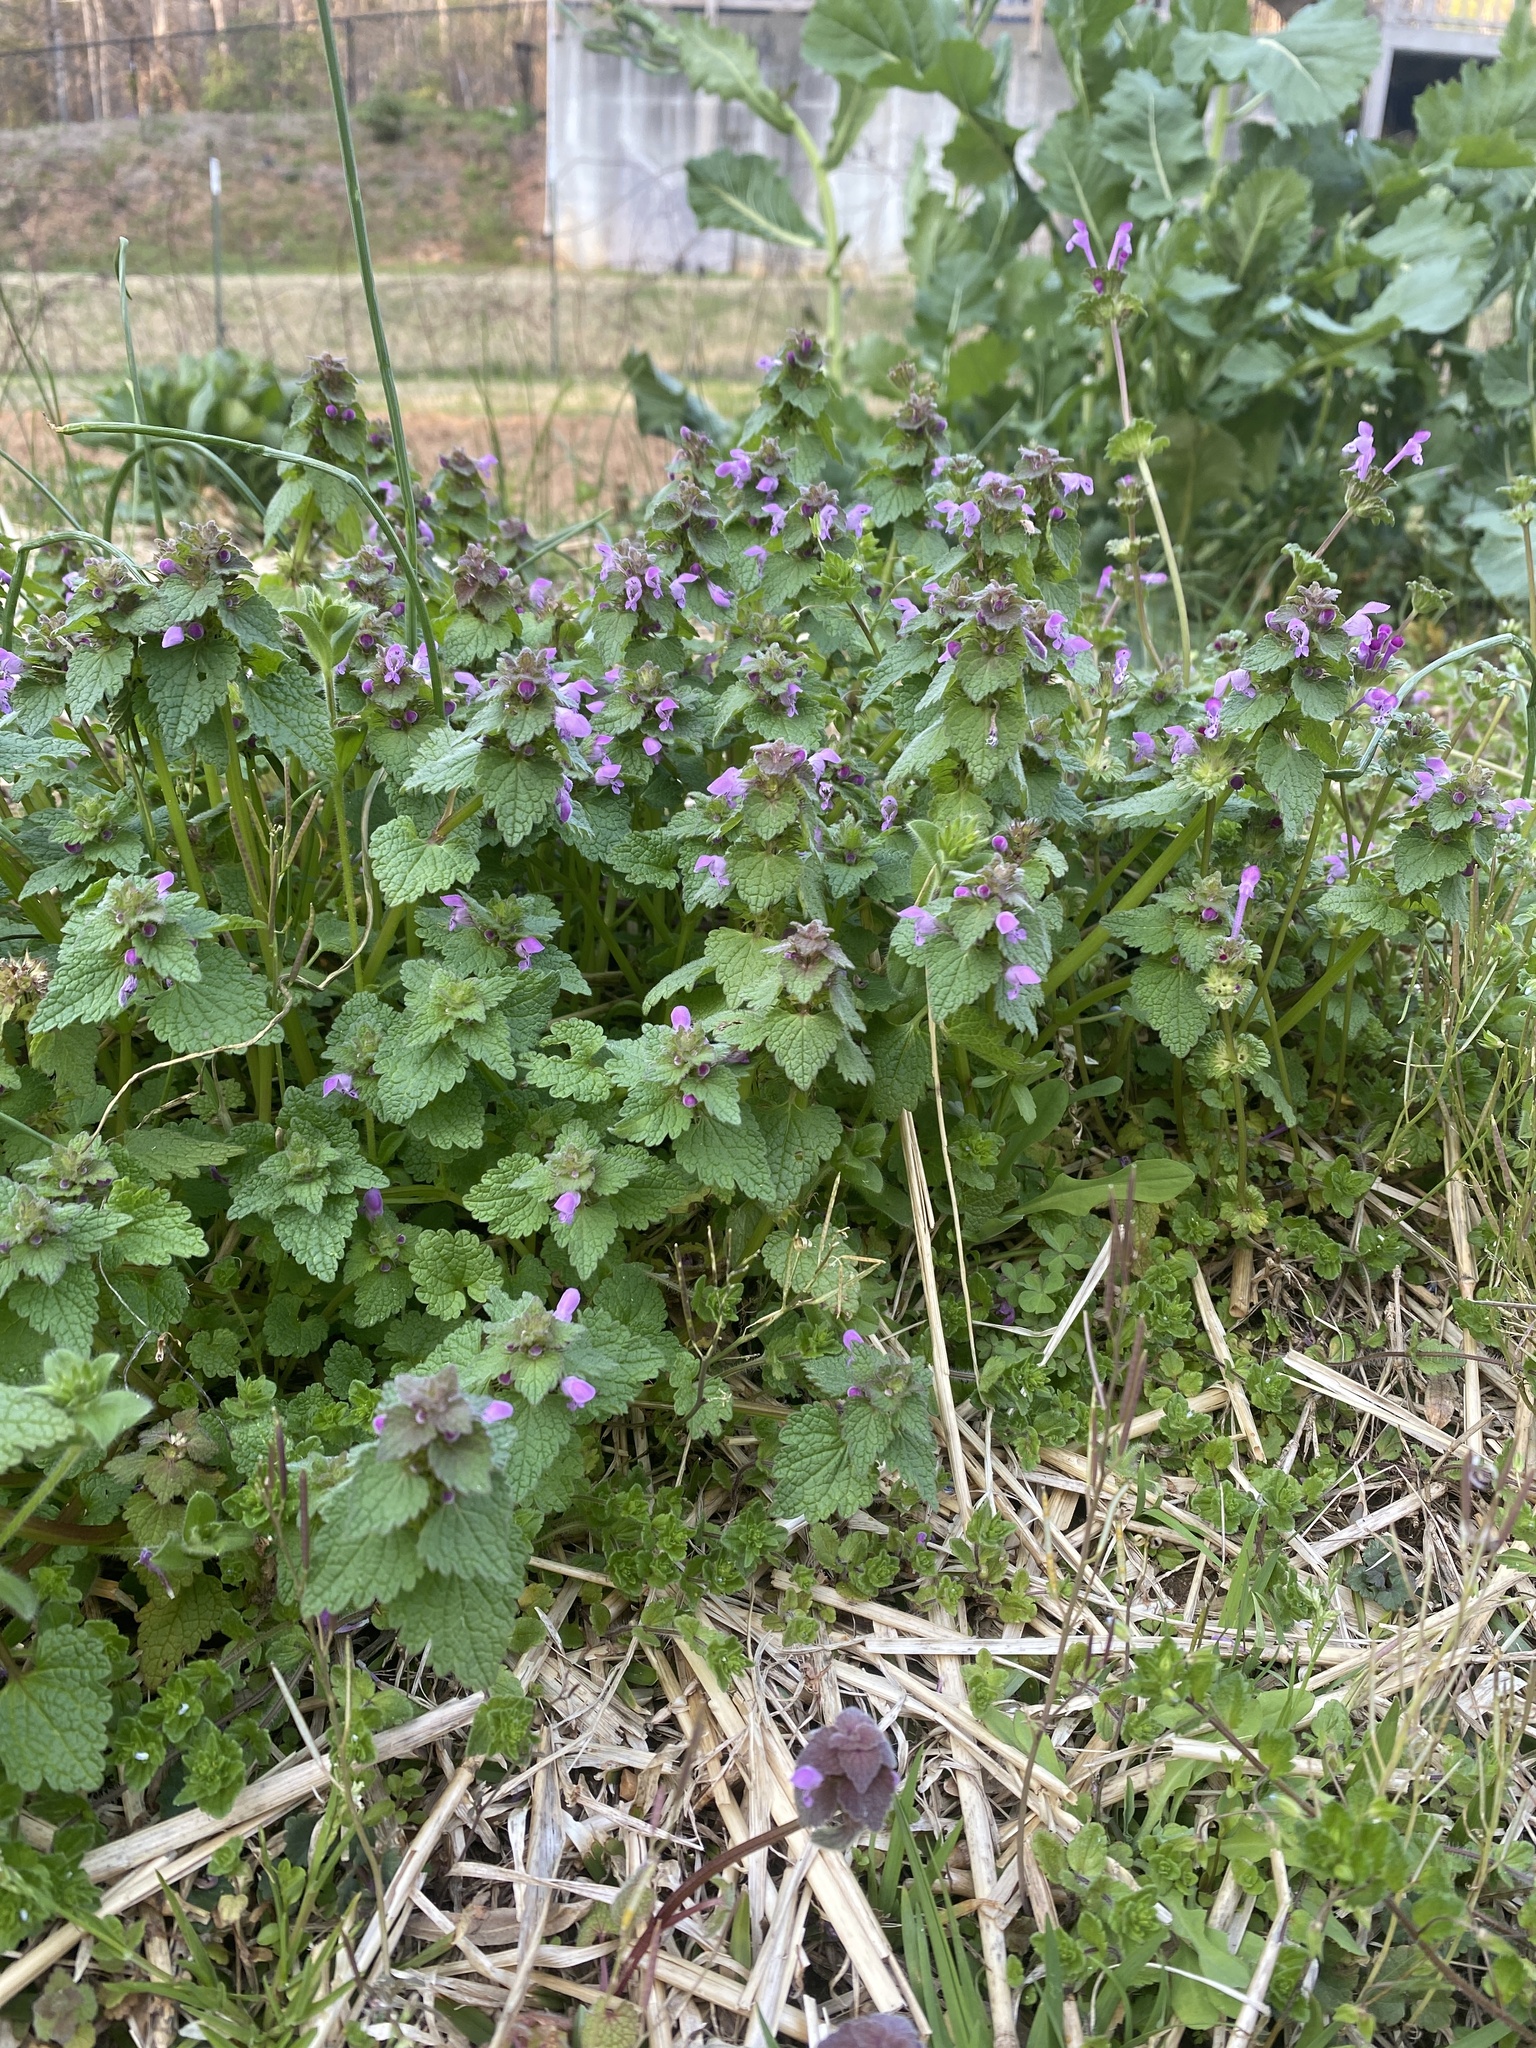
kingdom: Plantae
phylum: Tracheophyta
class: Magnoliopsida
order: Lamiales
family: Lamiaceae
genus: Lamium
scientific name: Lamium purpureum
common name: Red dead-nettle
